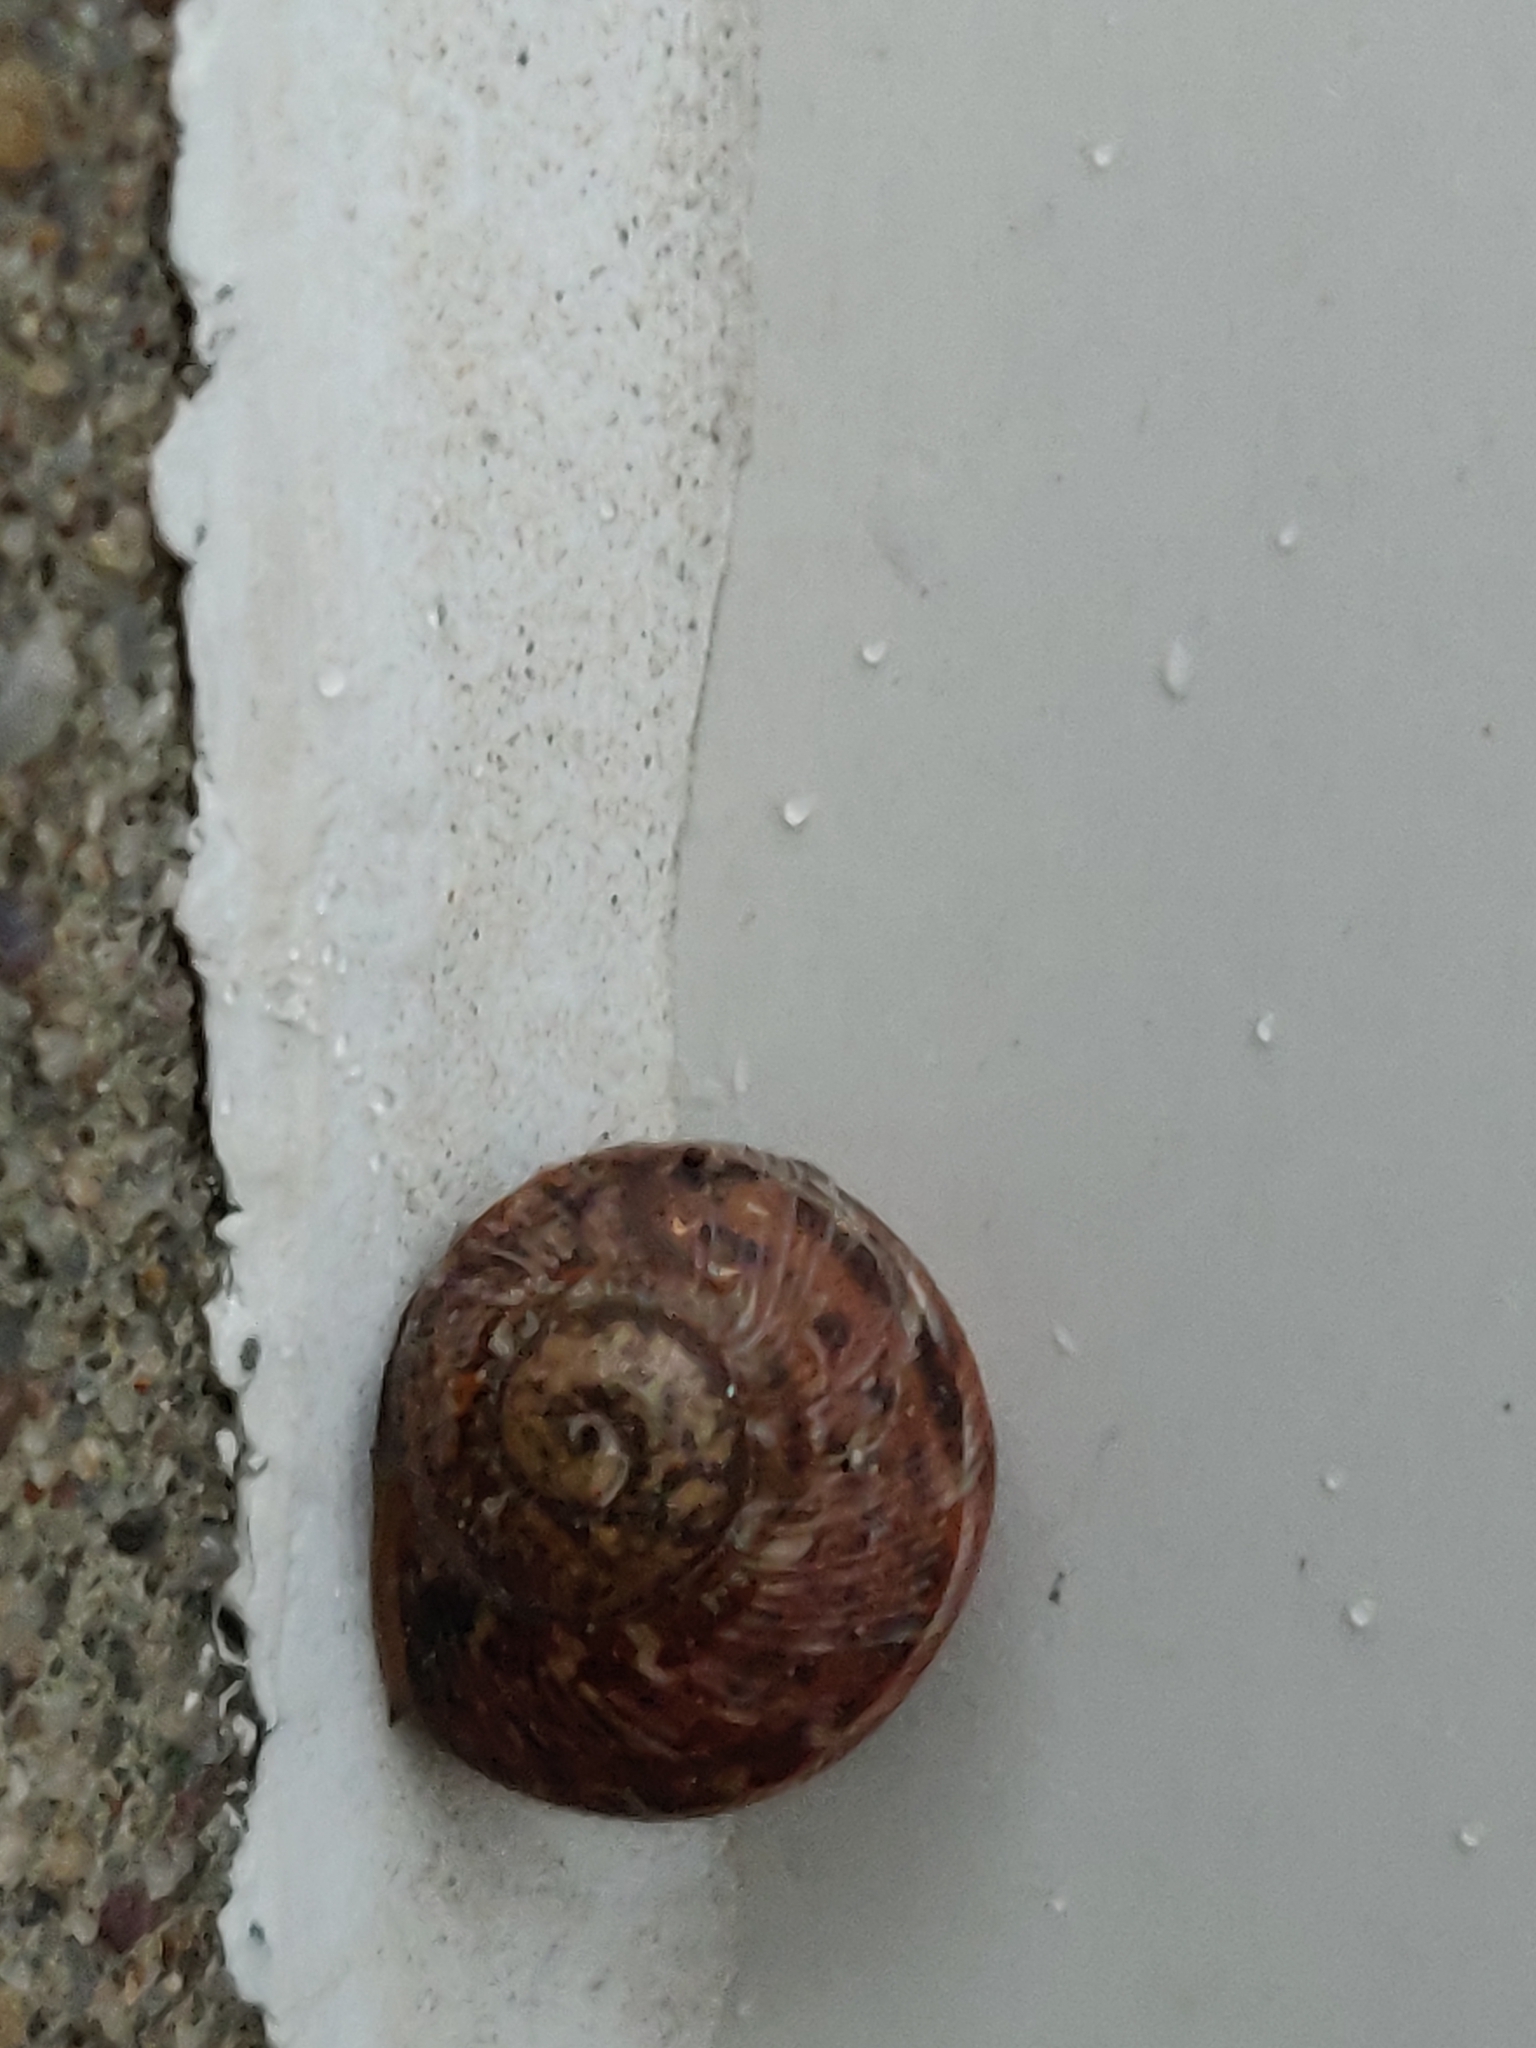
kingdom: Animalia
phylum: Mollusca
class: Gastropoda
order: Stylommatophora
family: Helicidae
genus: Cornu
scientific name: Cornu aspersum
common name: Brown garden snail
